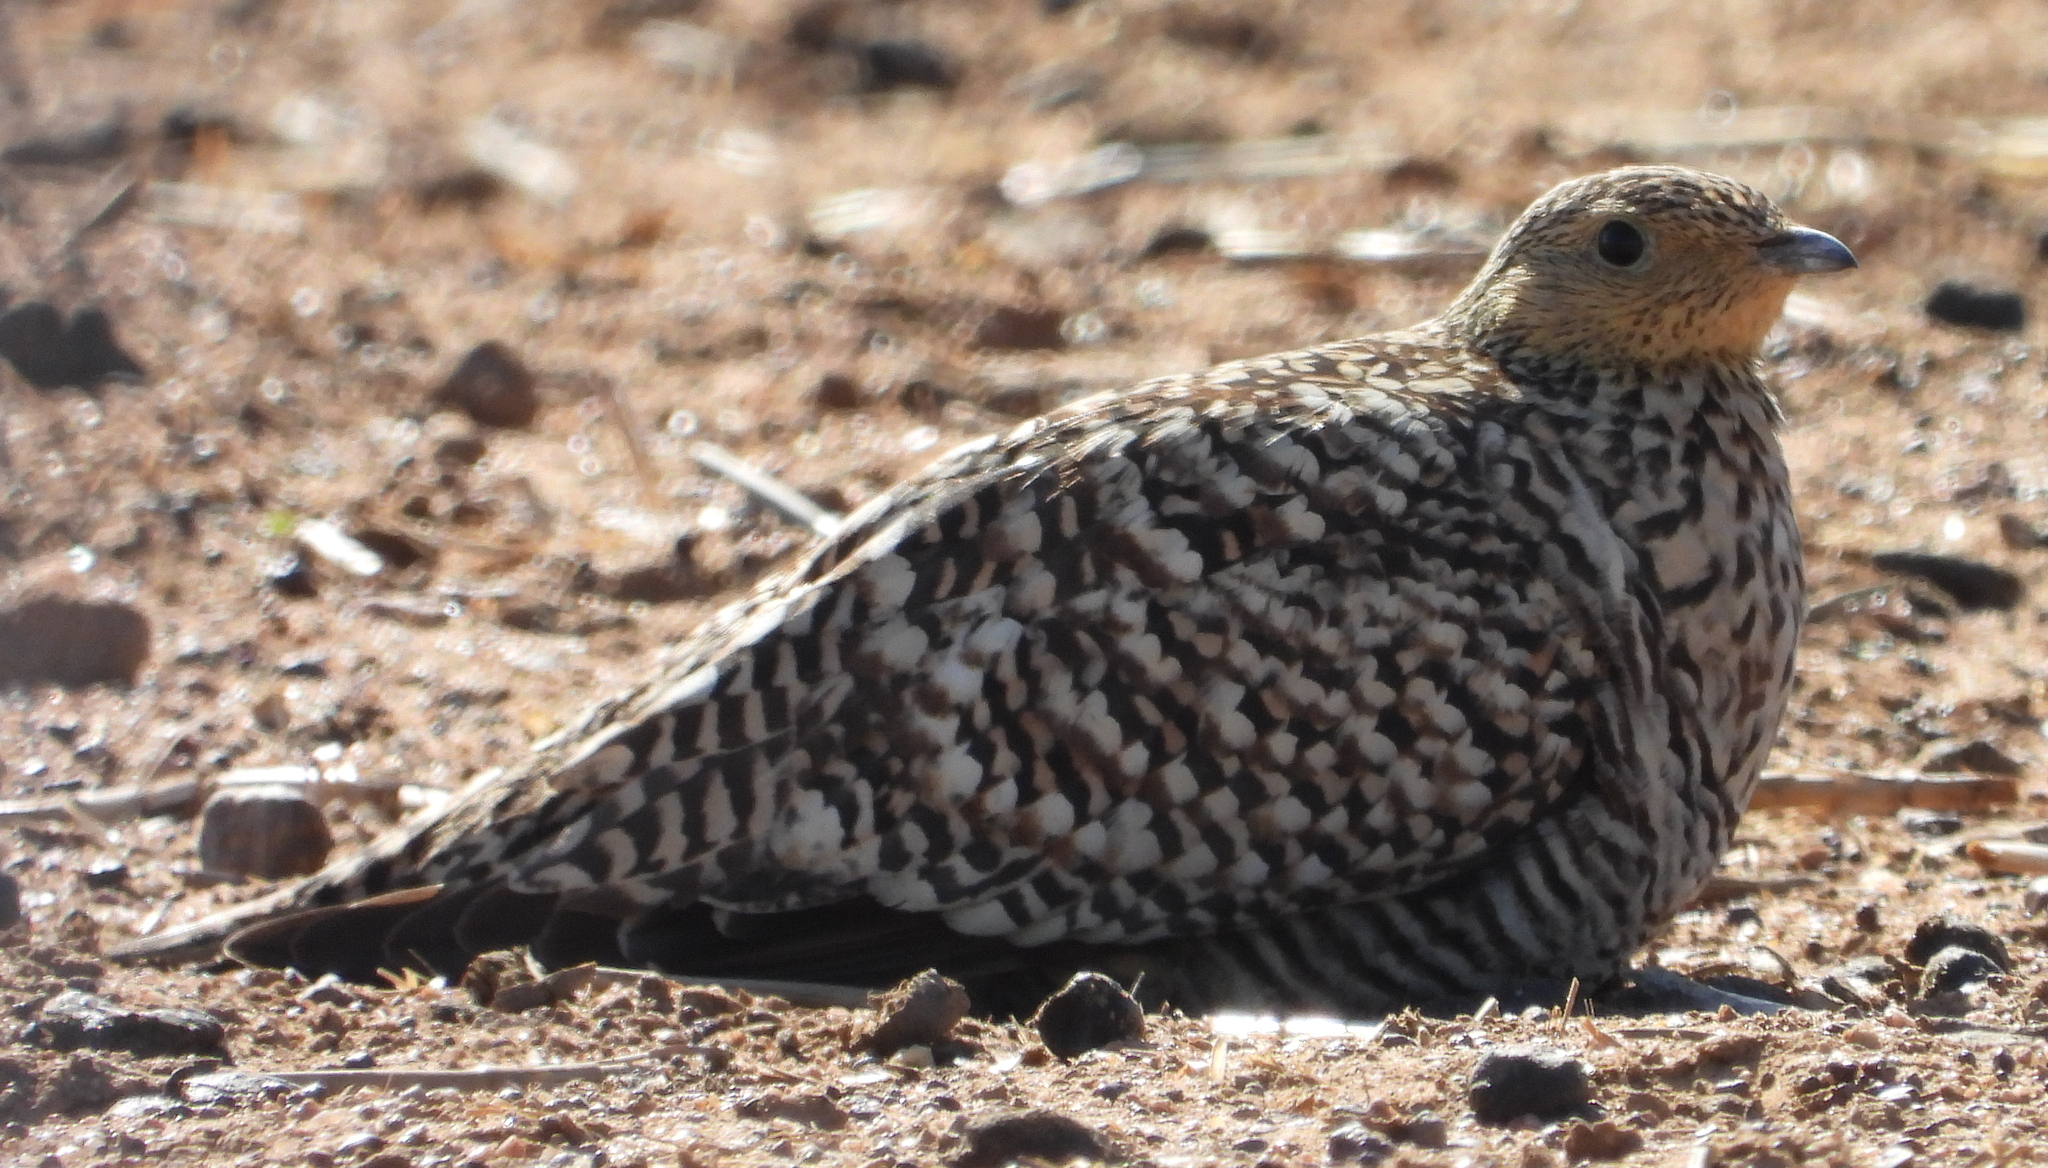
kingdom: Animalia
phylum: Chordata
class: Aves
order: Pteroclidiformes
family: Pteroclididae
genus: Pterocles
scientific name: Pterocles namaqua
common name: Namaqua sandgrouse
